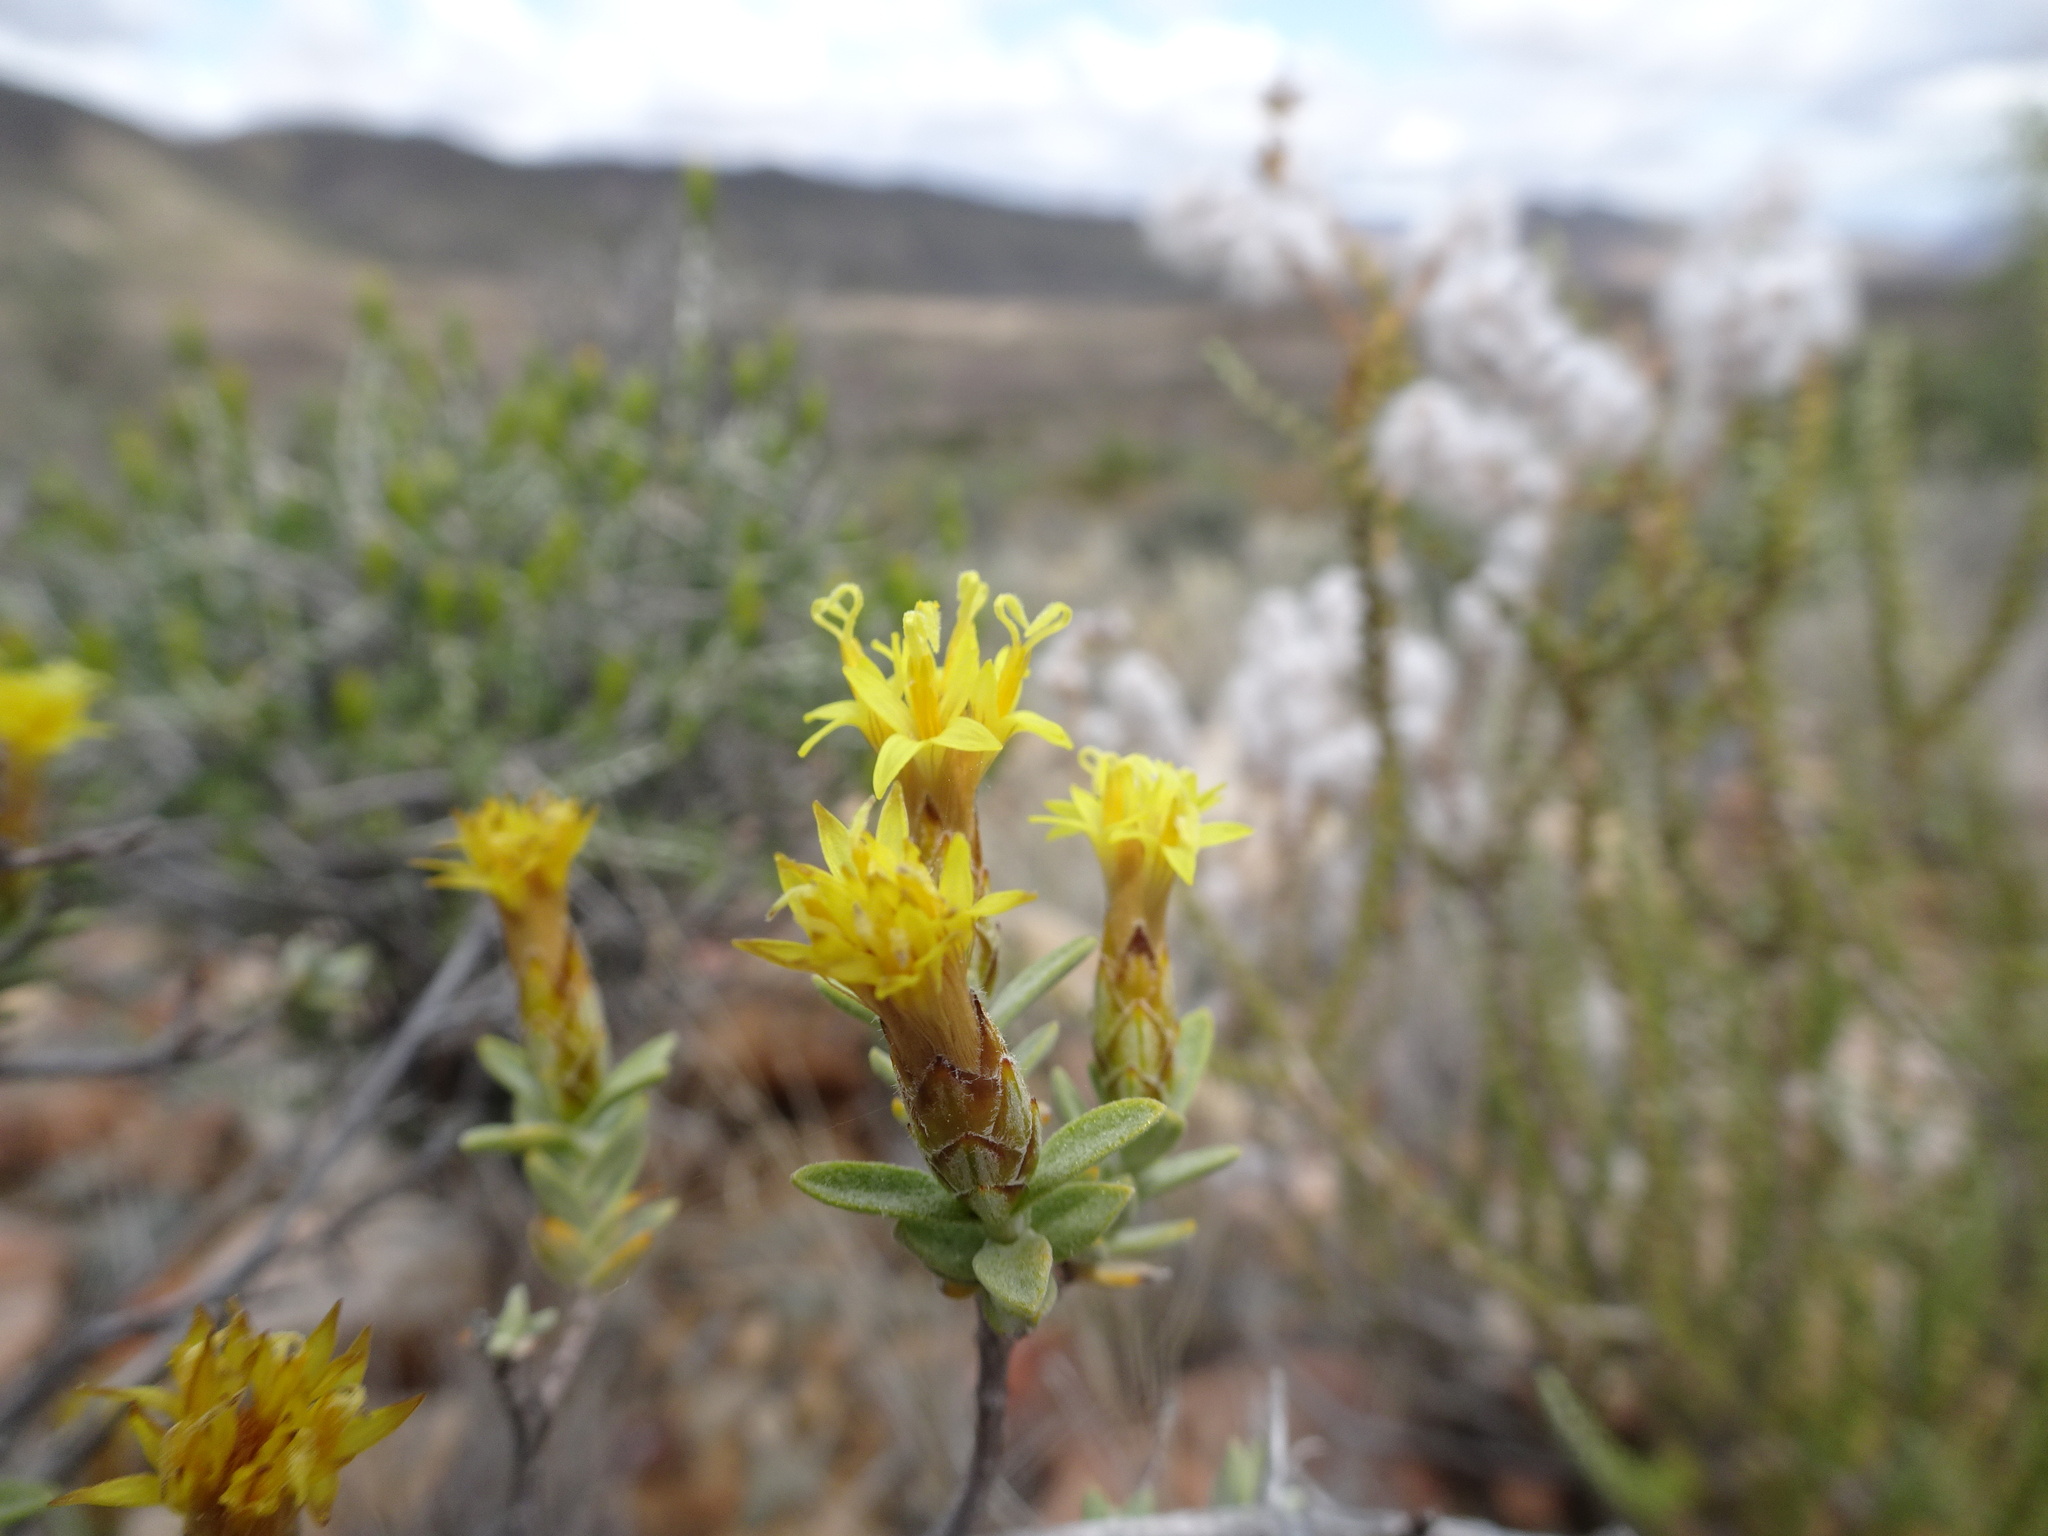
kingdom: Plantae
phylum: Tracheophyta
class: Magnoliopsida
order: Asterales
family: Asteraceae
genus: Pteronia
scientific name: Pteronia glauca
